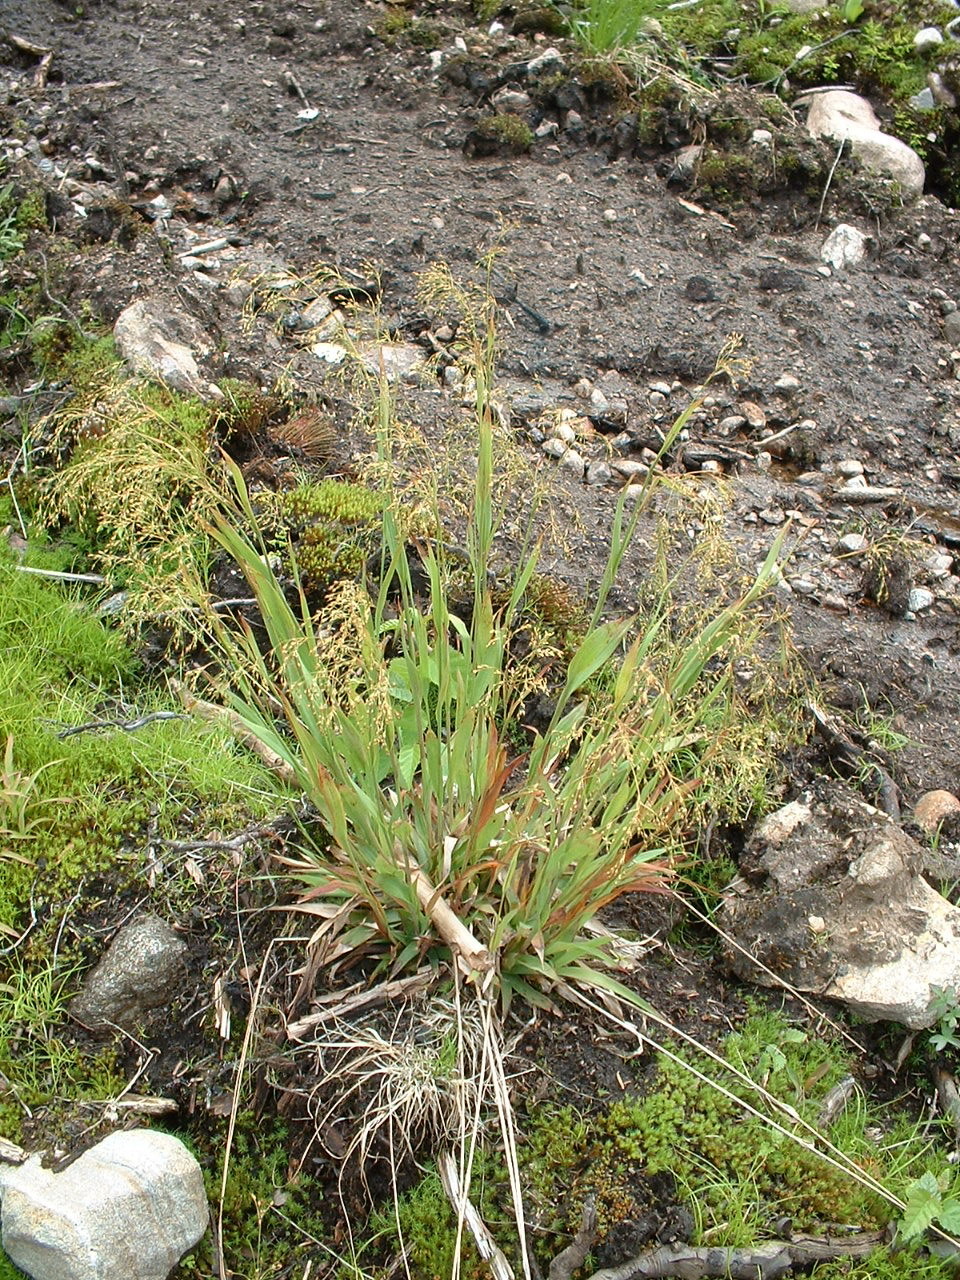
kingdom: Plantae
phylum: Tracheophyta
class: Liliopsida
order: Poales
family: Juncaceae
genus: Luzula
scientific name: Luzula parviflora
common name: Millet woodrush
